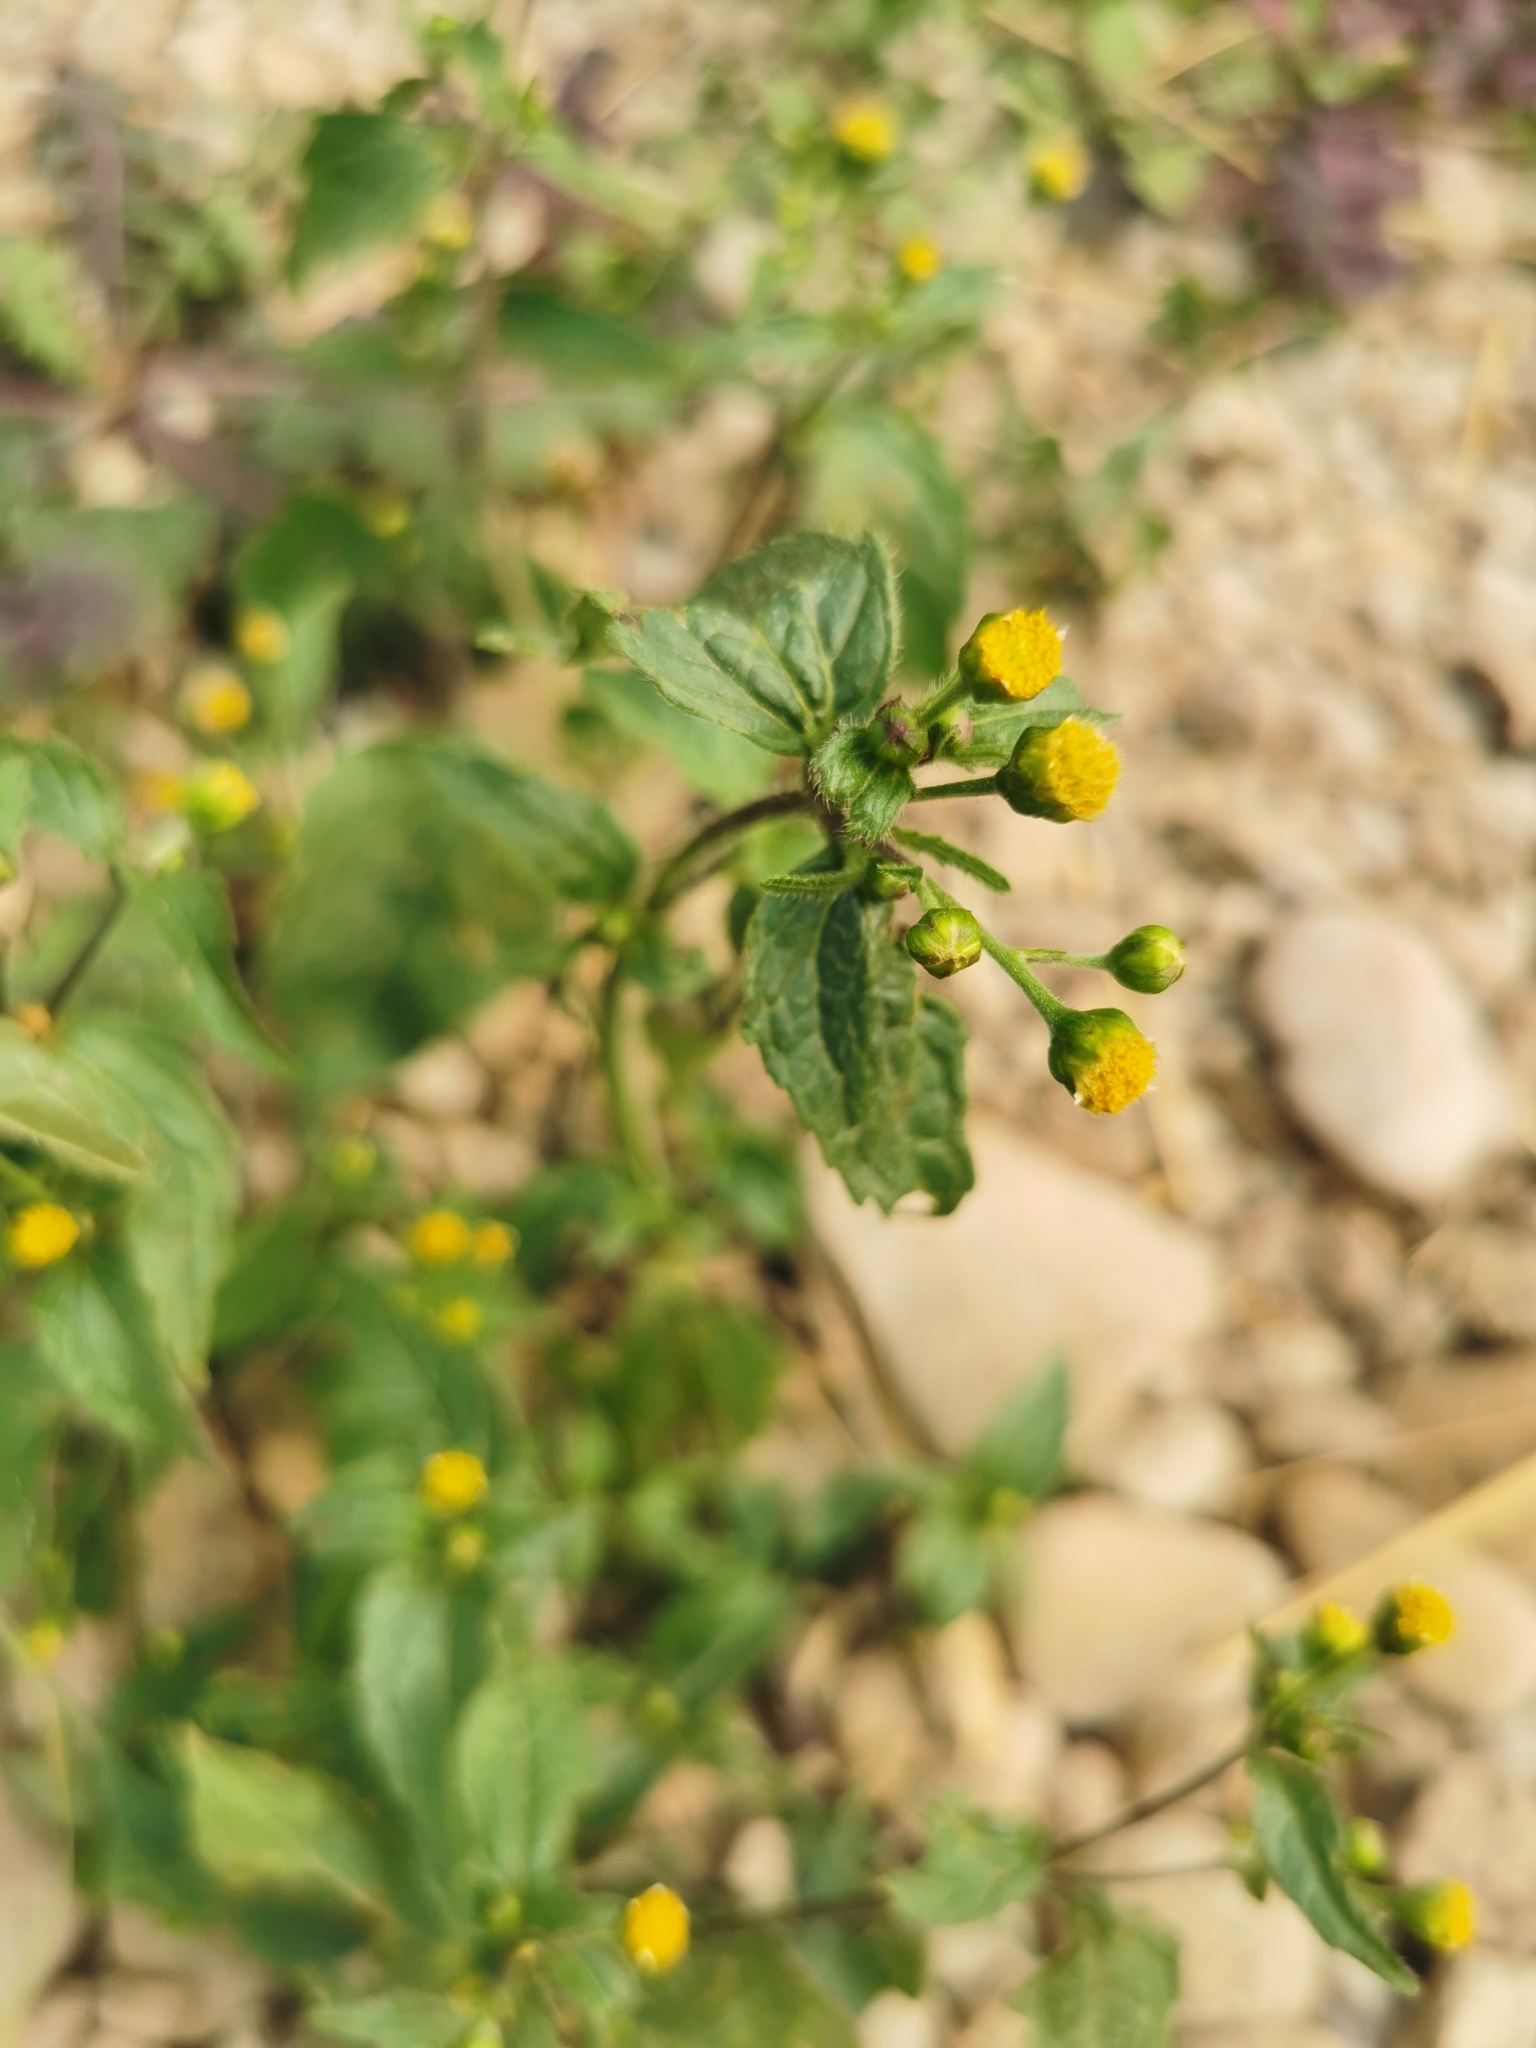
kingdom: Plantae
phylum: Tracheophyta
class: Magnoliopsida
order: Asterales
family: Asteraceae
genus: Bidens
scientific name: Bidens pilosa
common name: Black-jack
